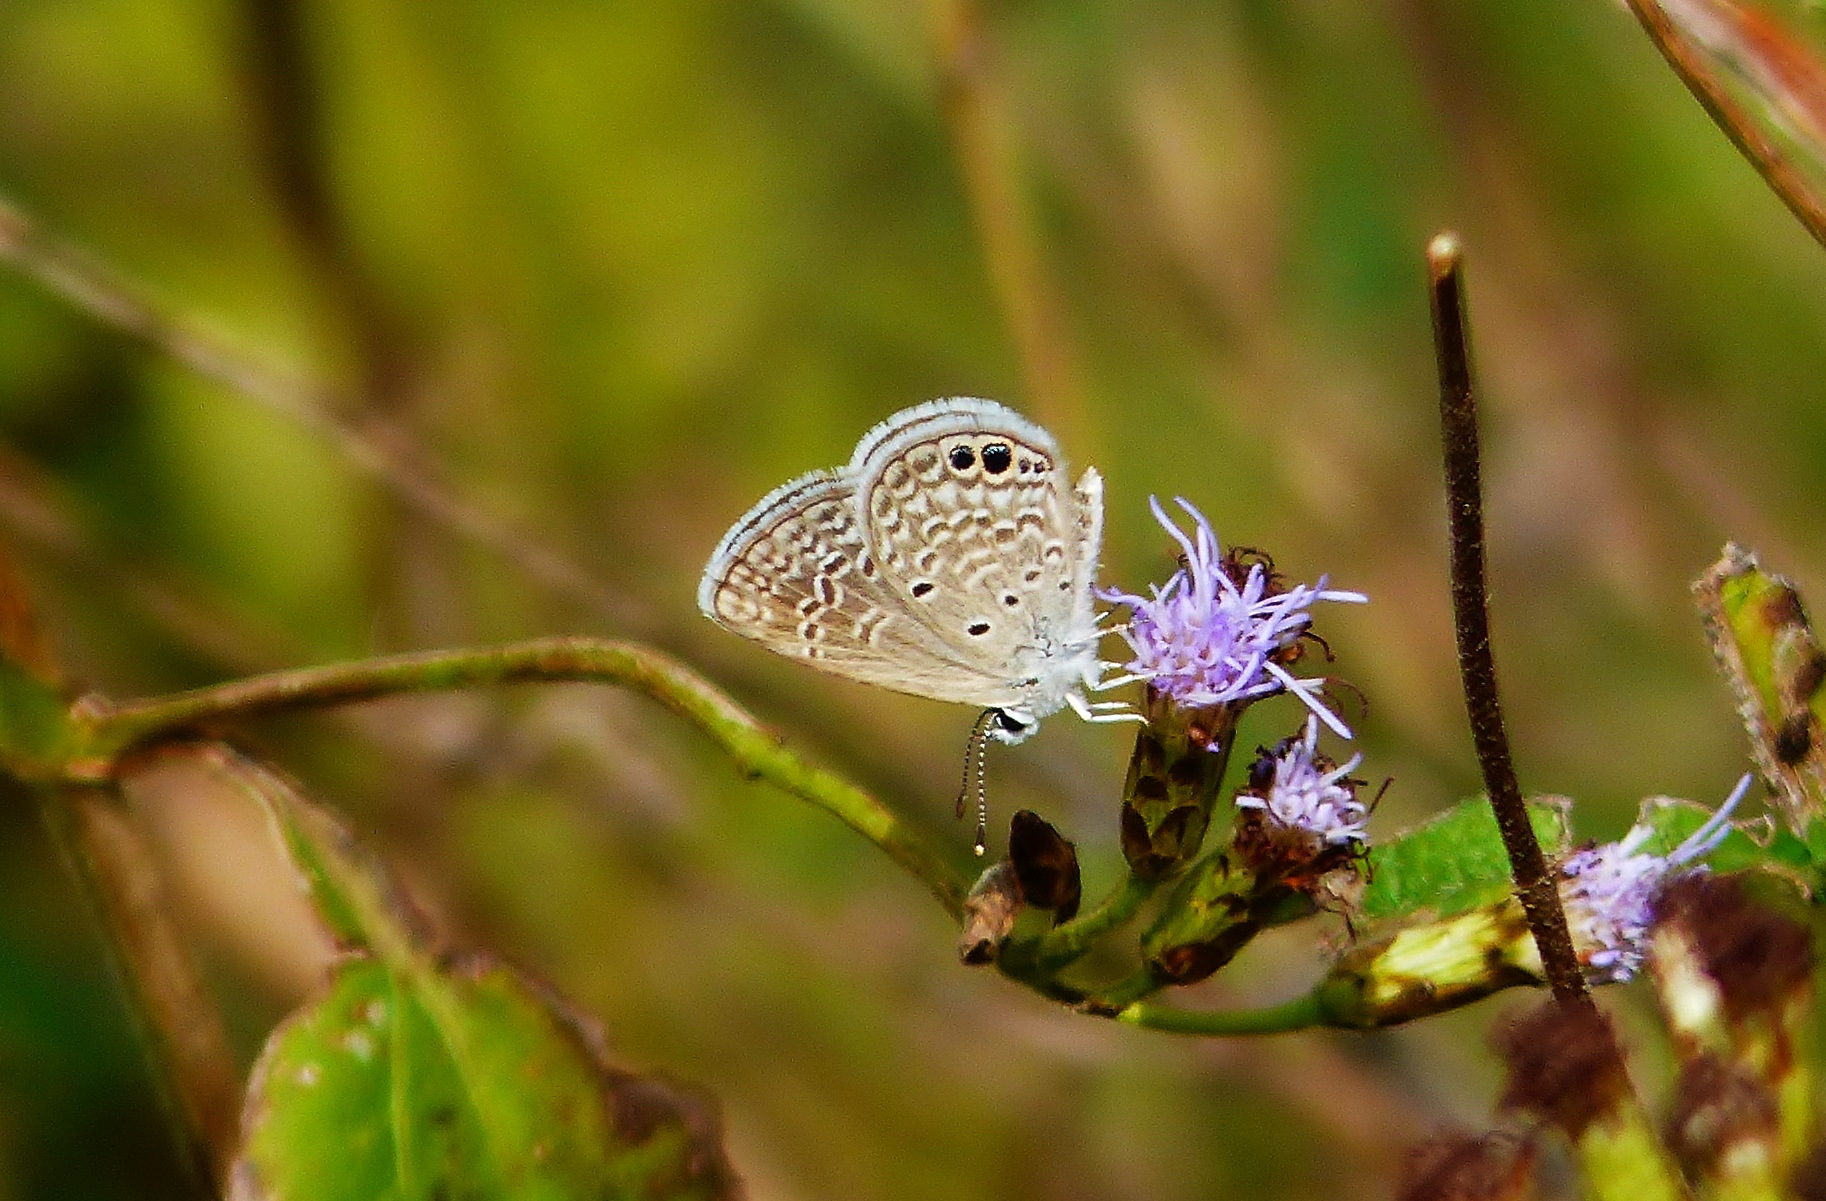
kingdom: Animalia
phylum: Arthropoda
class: Insecta
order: Lepidoptera
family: Lycaenidae
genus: Hemiargus
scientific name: Hemiargus ceraunus
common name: Ceraunus blue
